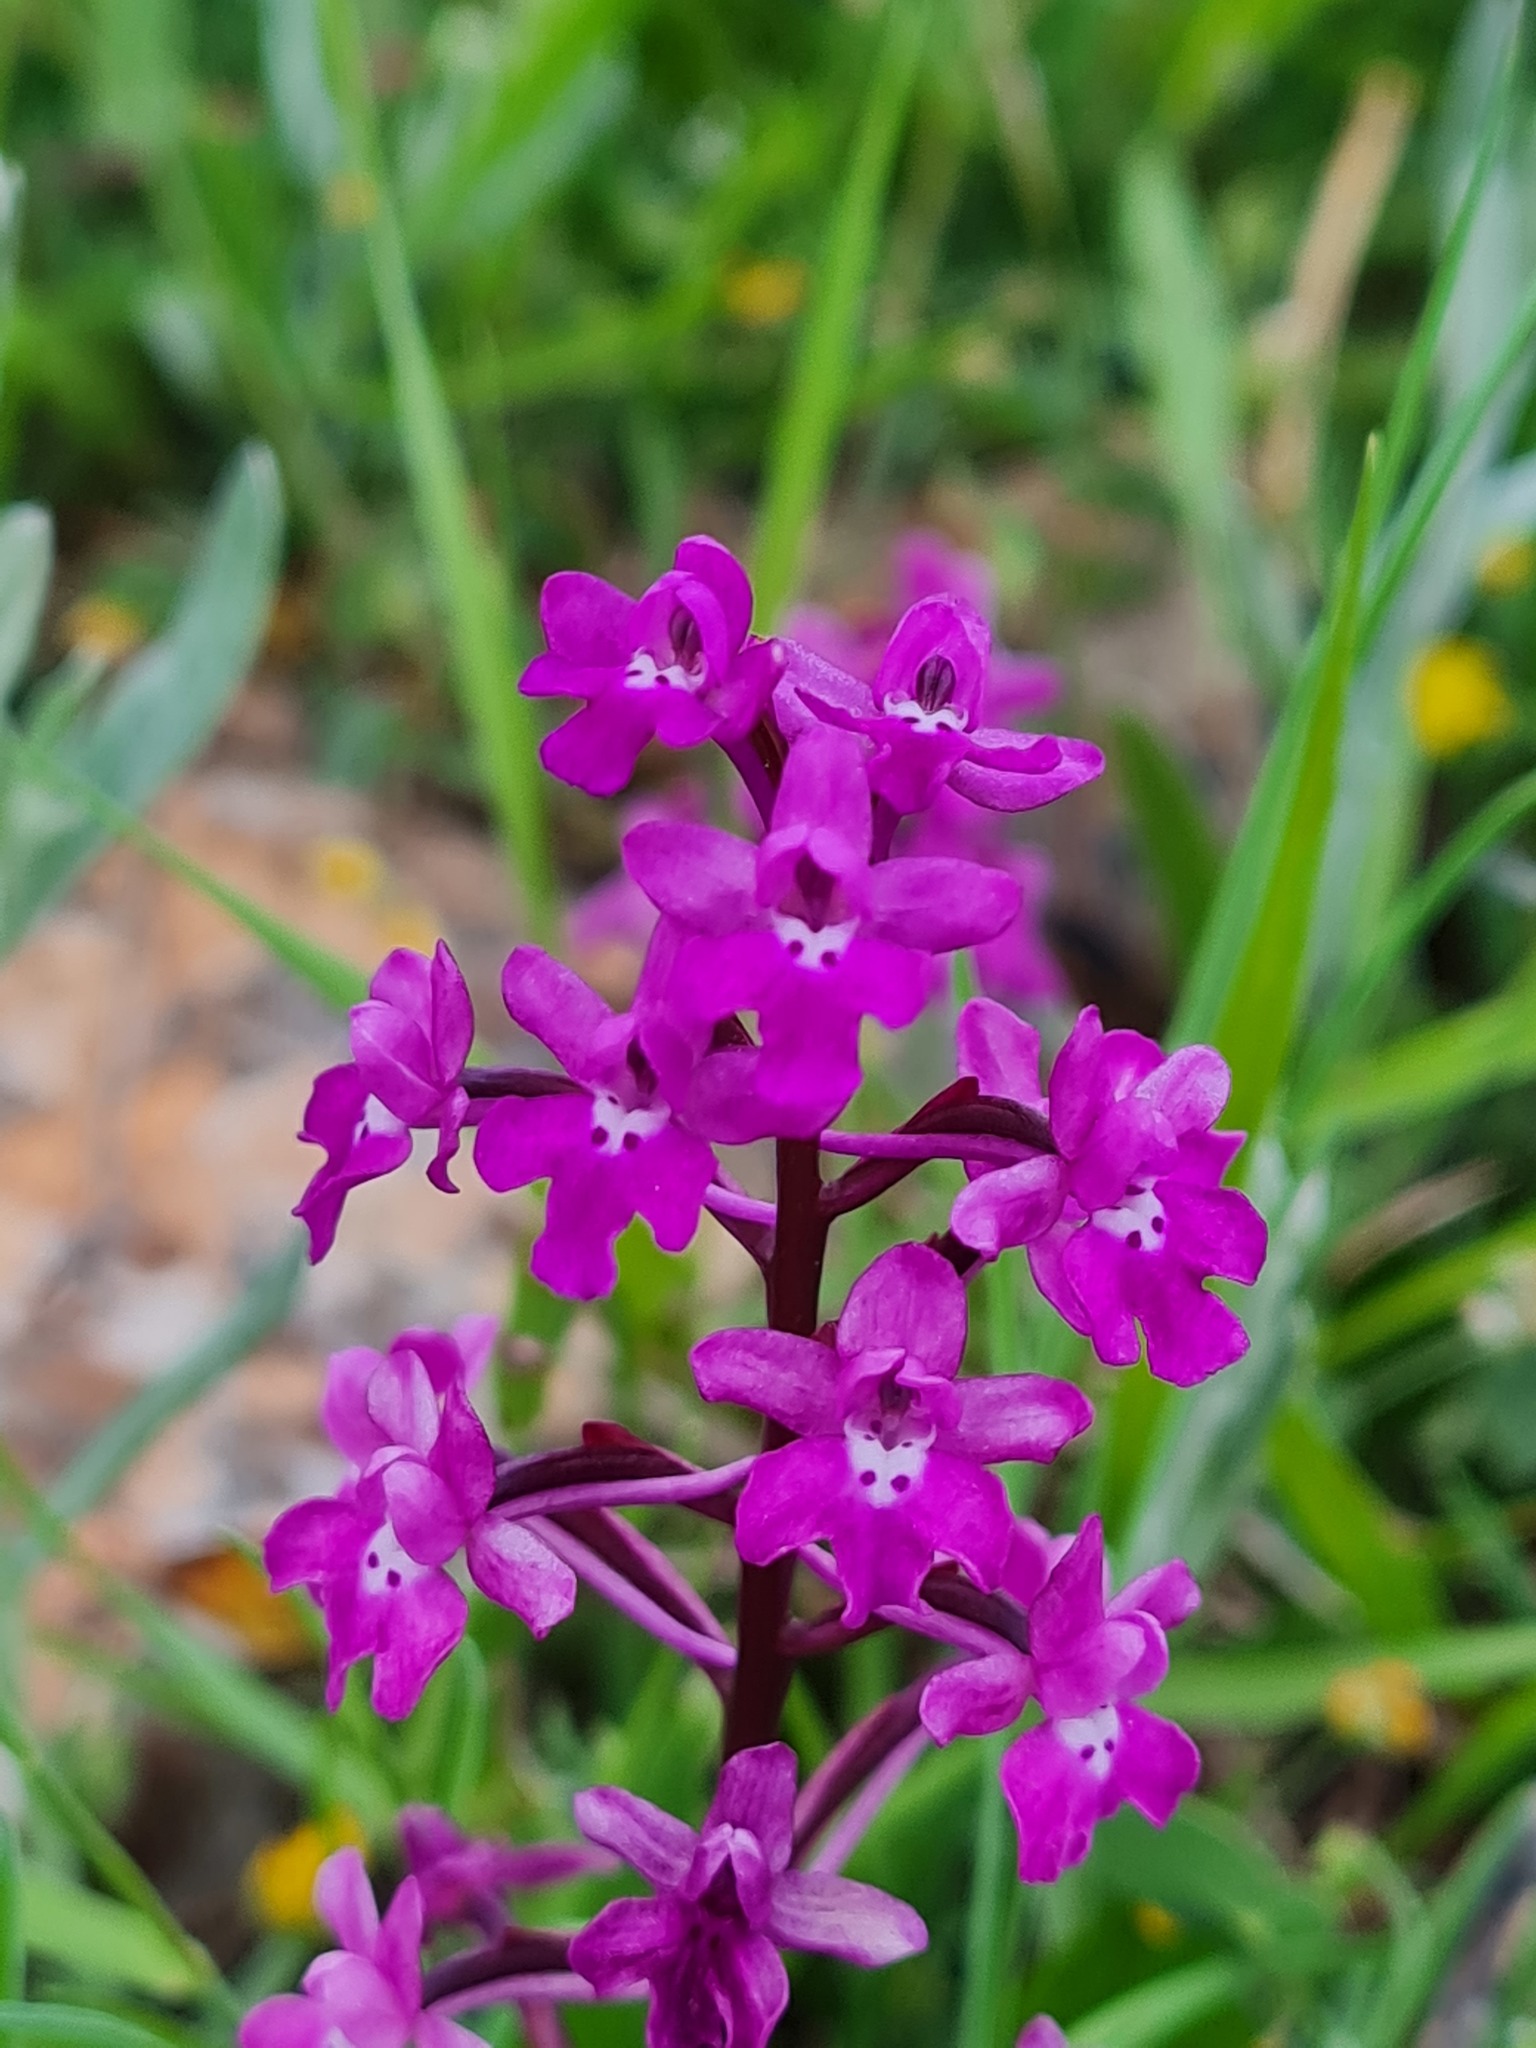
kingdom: Plantae
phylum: Tracheophyta
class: Liliopsida
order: Asparagales
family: Orchidaceae
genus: Orchis
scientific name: Orchis quadripunctata
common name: Four-spotted orchid
